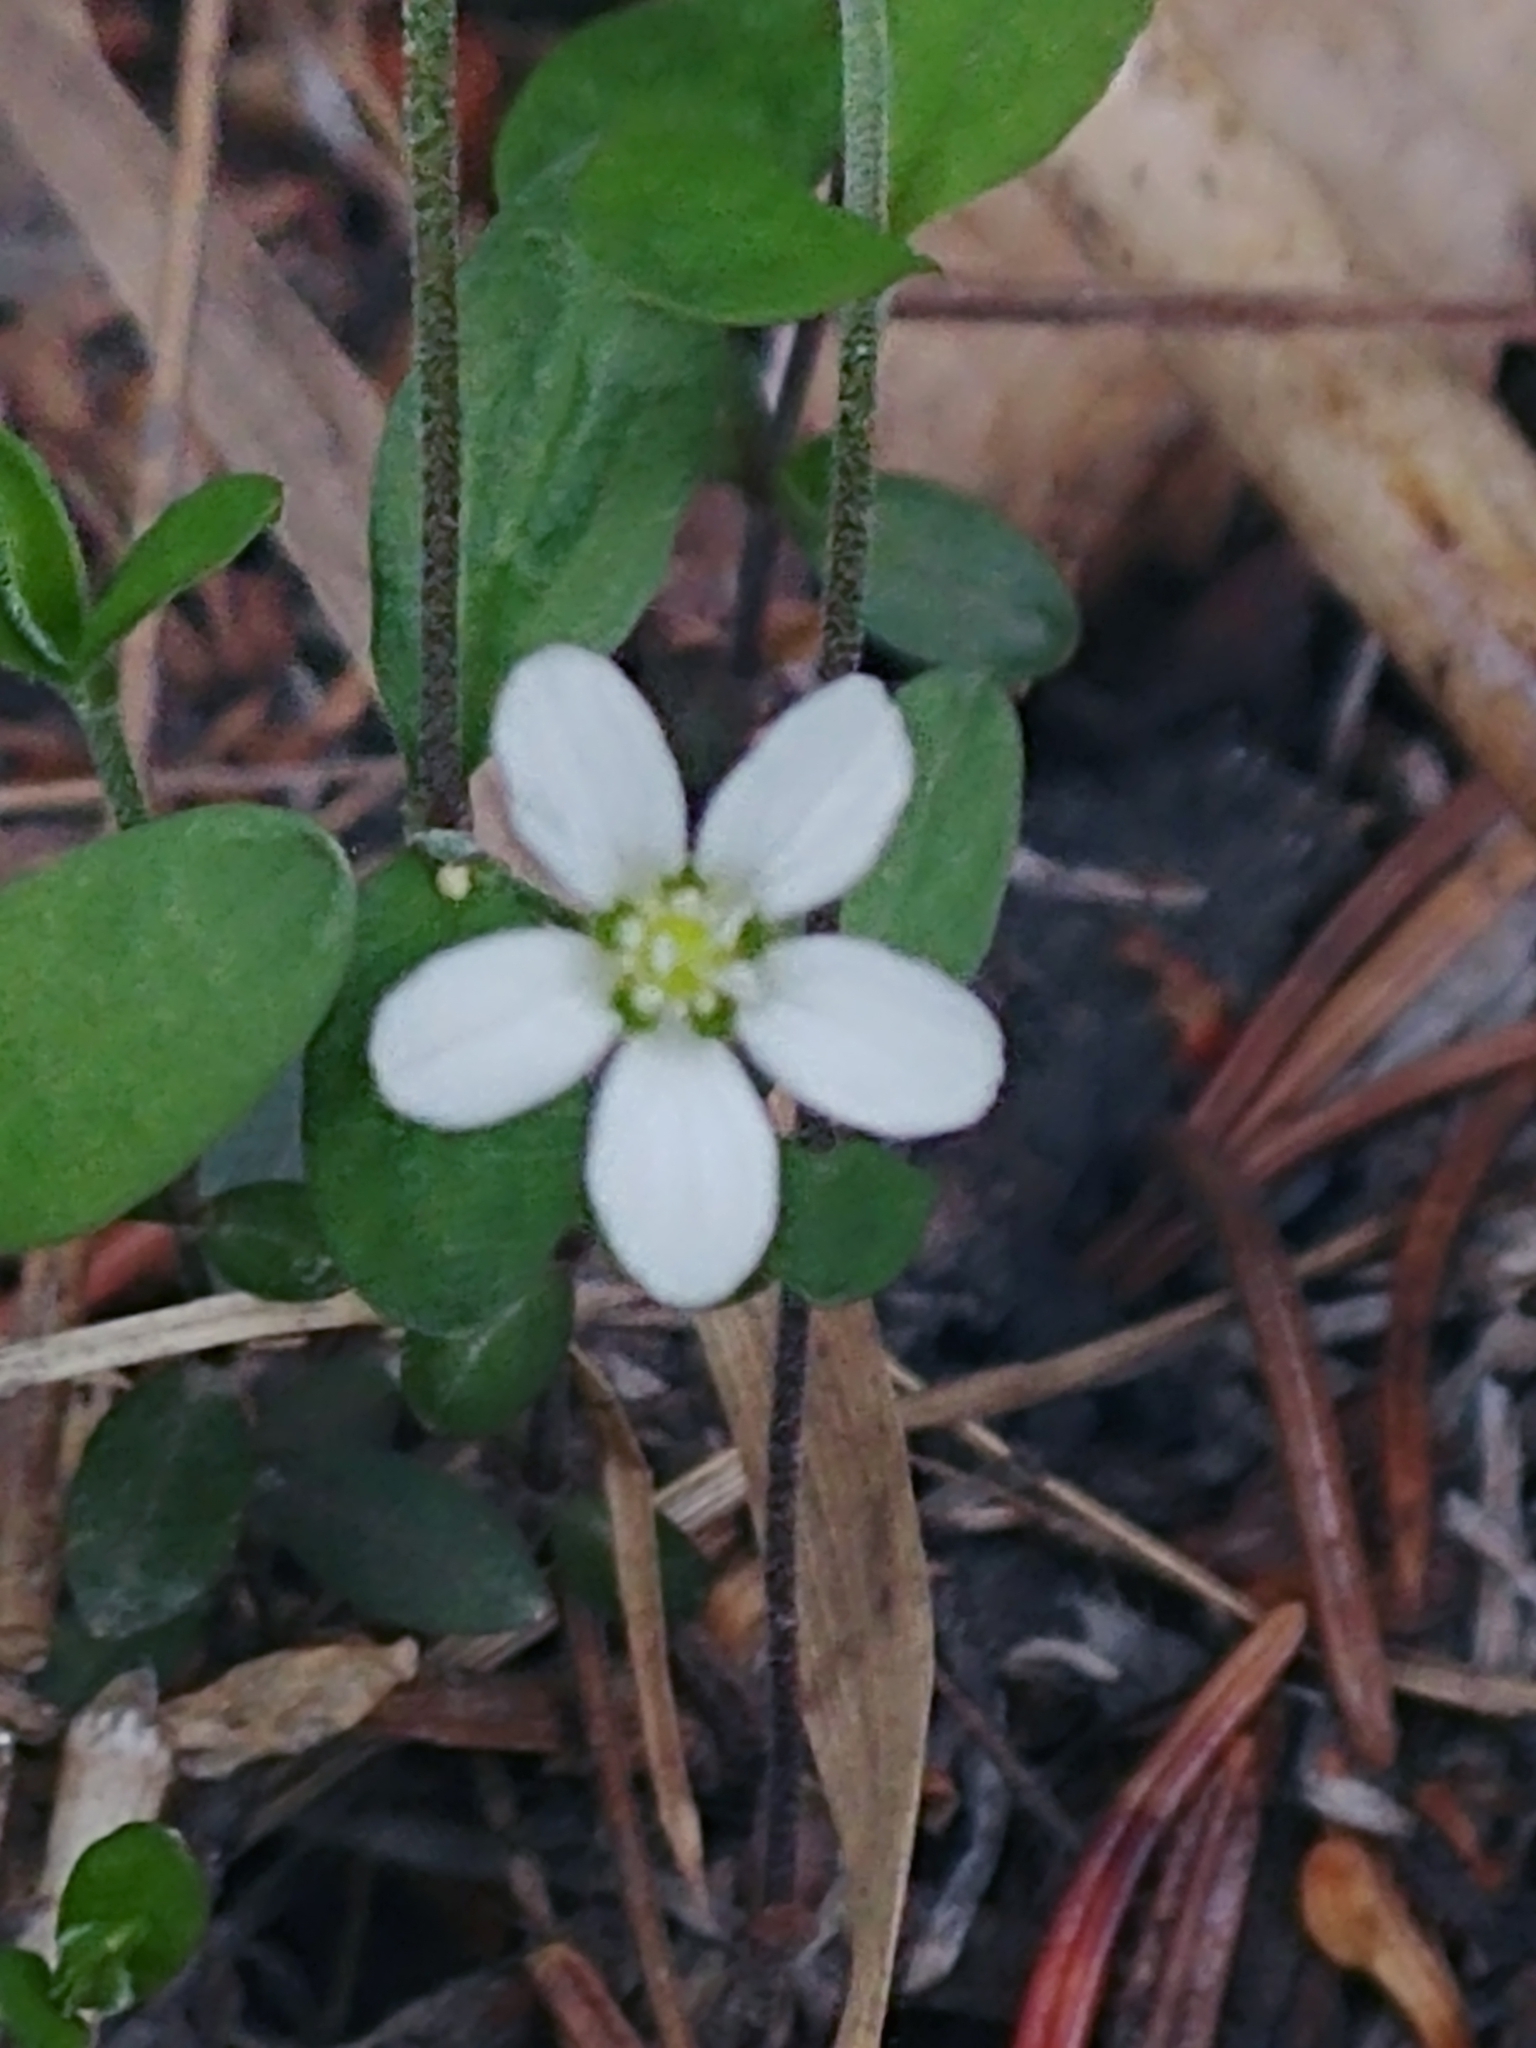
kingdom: Plantae
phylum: Tracheophyta
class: Magnoliopsida
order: Caryophyllales
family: Caryophyllaceae
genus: Moehringia
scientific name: Moehringia lateriflora
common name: Blunt-leaved sandwort
